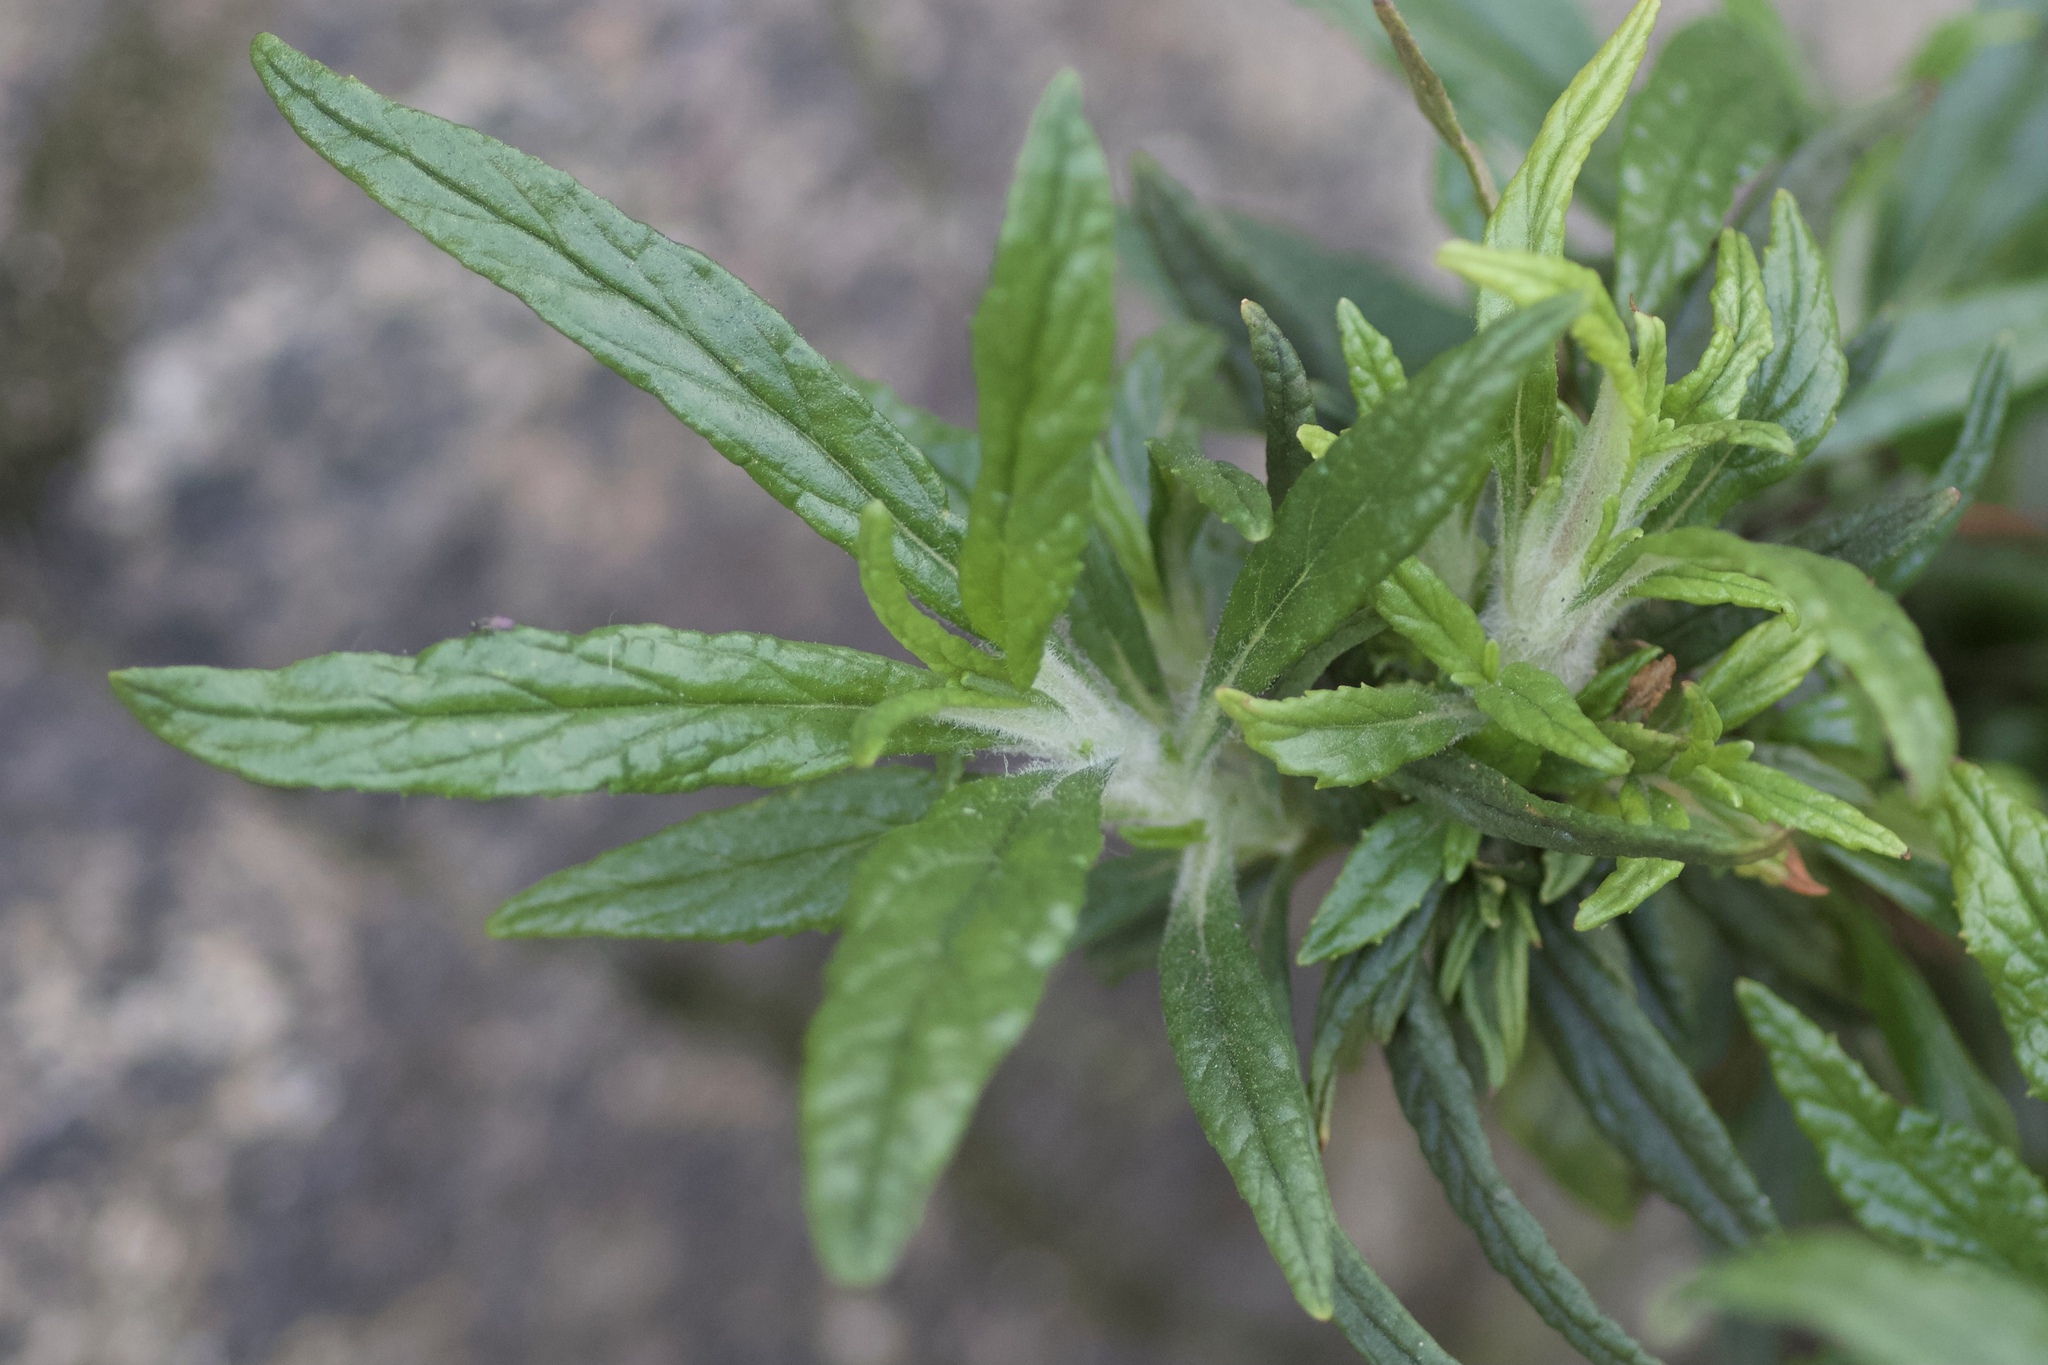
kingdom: Plantae
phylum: Tracheophyta
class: Magnoliopsida
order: Lamiales
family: Phrymaceae
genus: Diplacus
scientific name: Diplacus longiflorus
